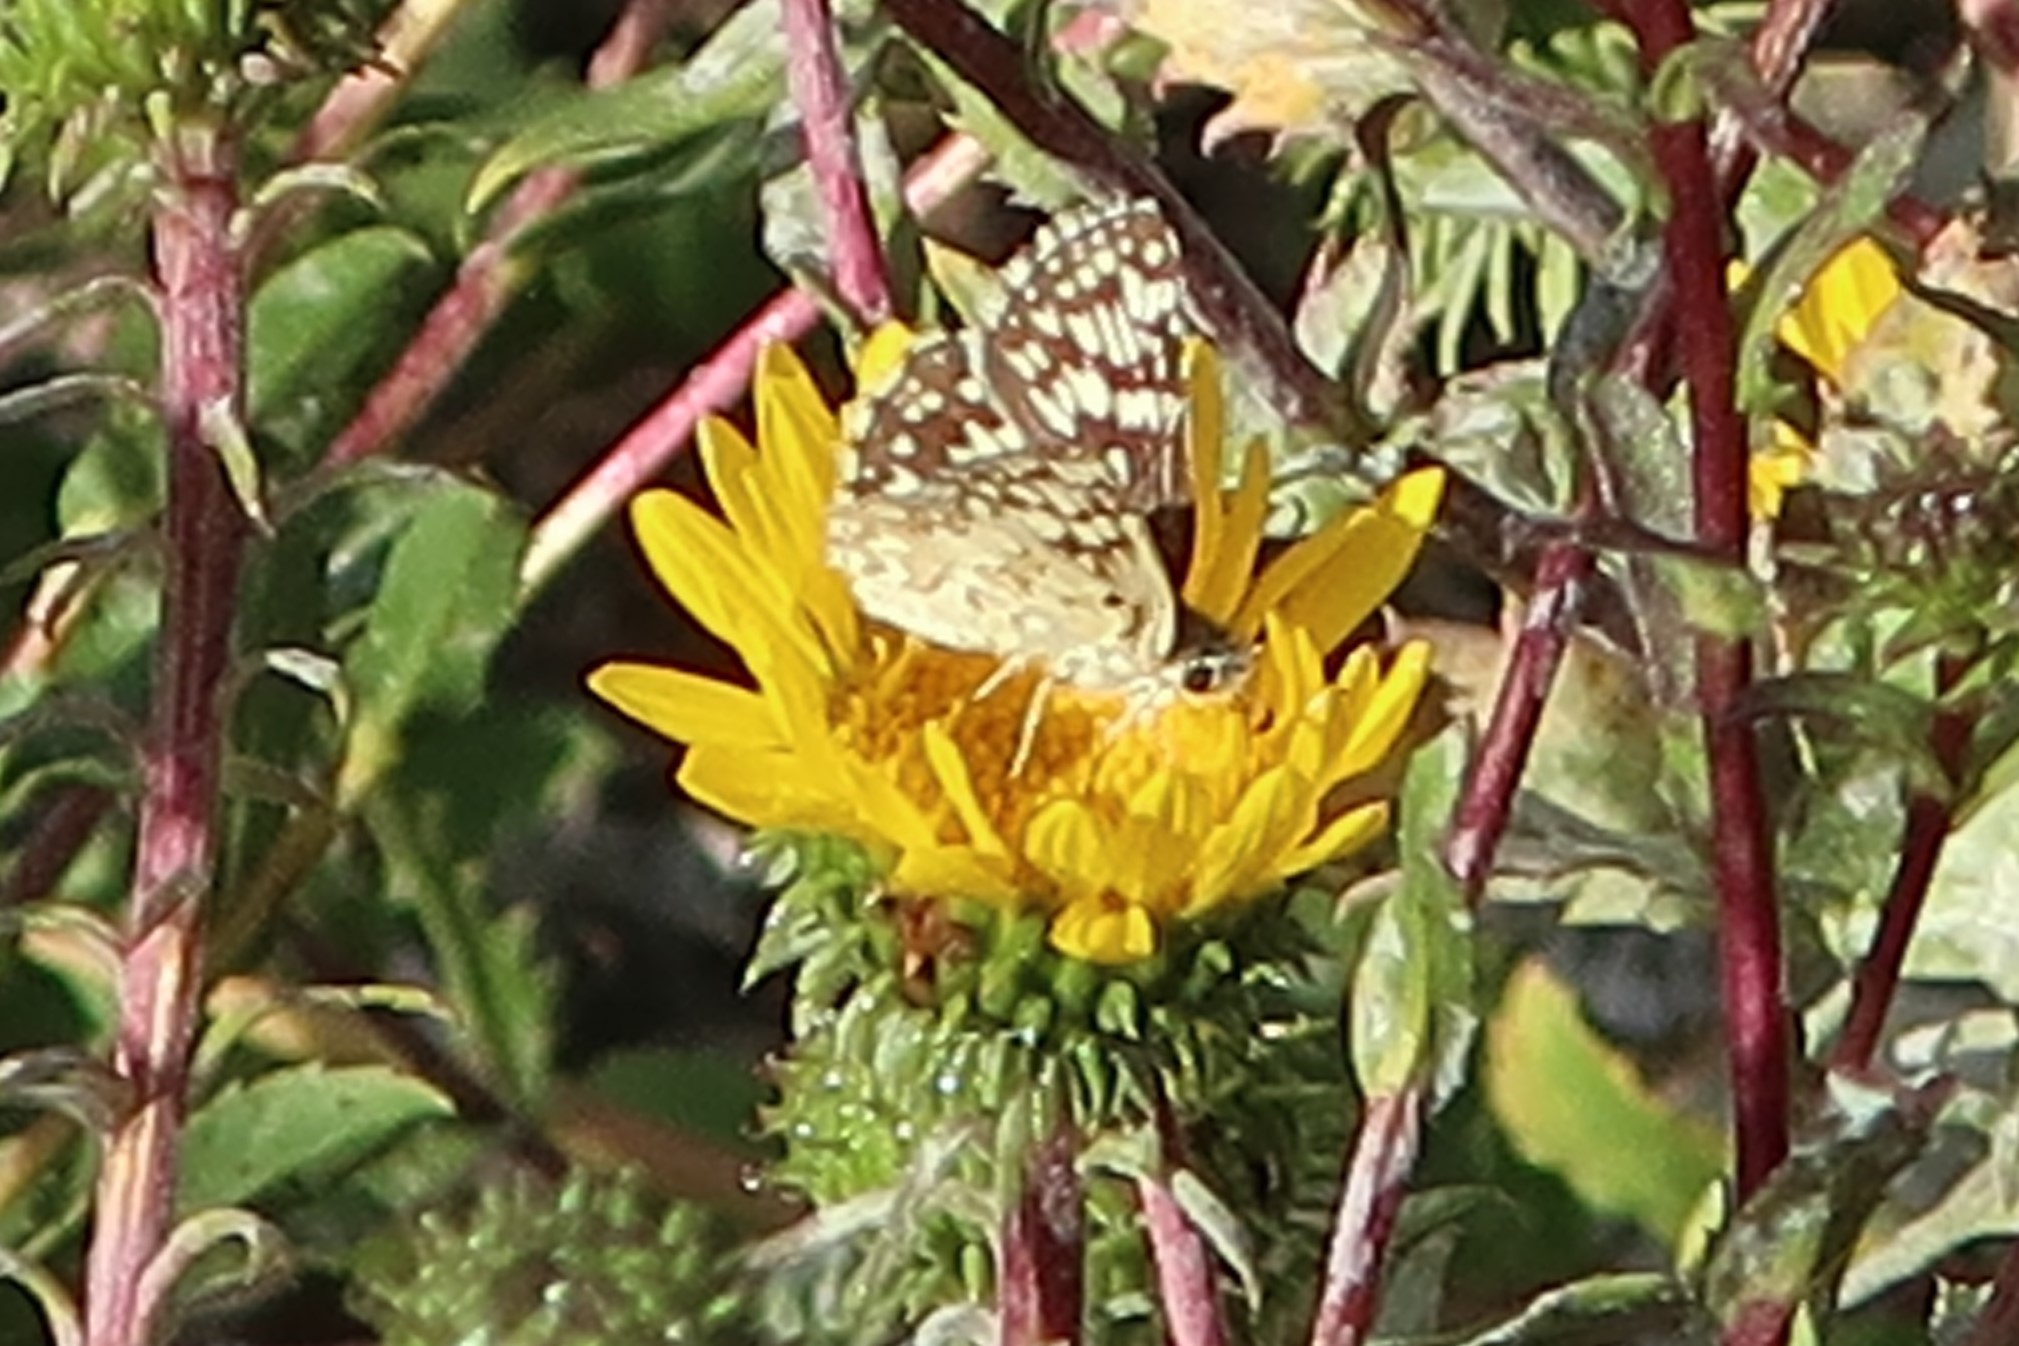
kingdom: Animalia
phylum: Arthropoda
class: Insecta
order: Lepidoptera
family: Hesperiidae
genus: Burnsius
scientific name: Burnsius communis
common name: Common checkered-skipper
